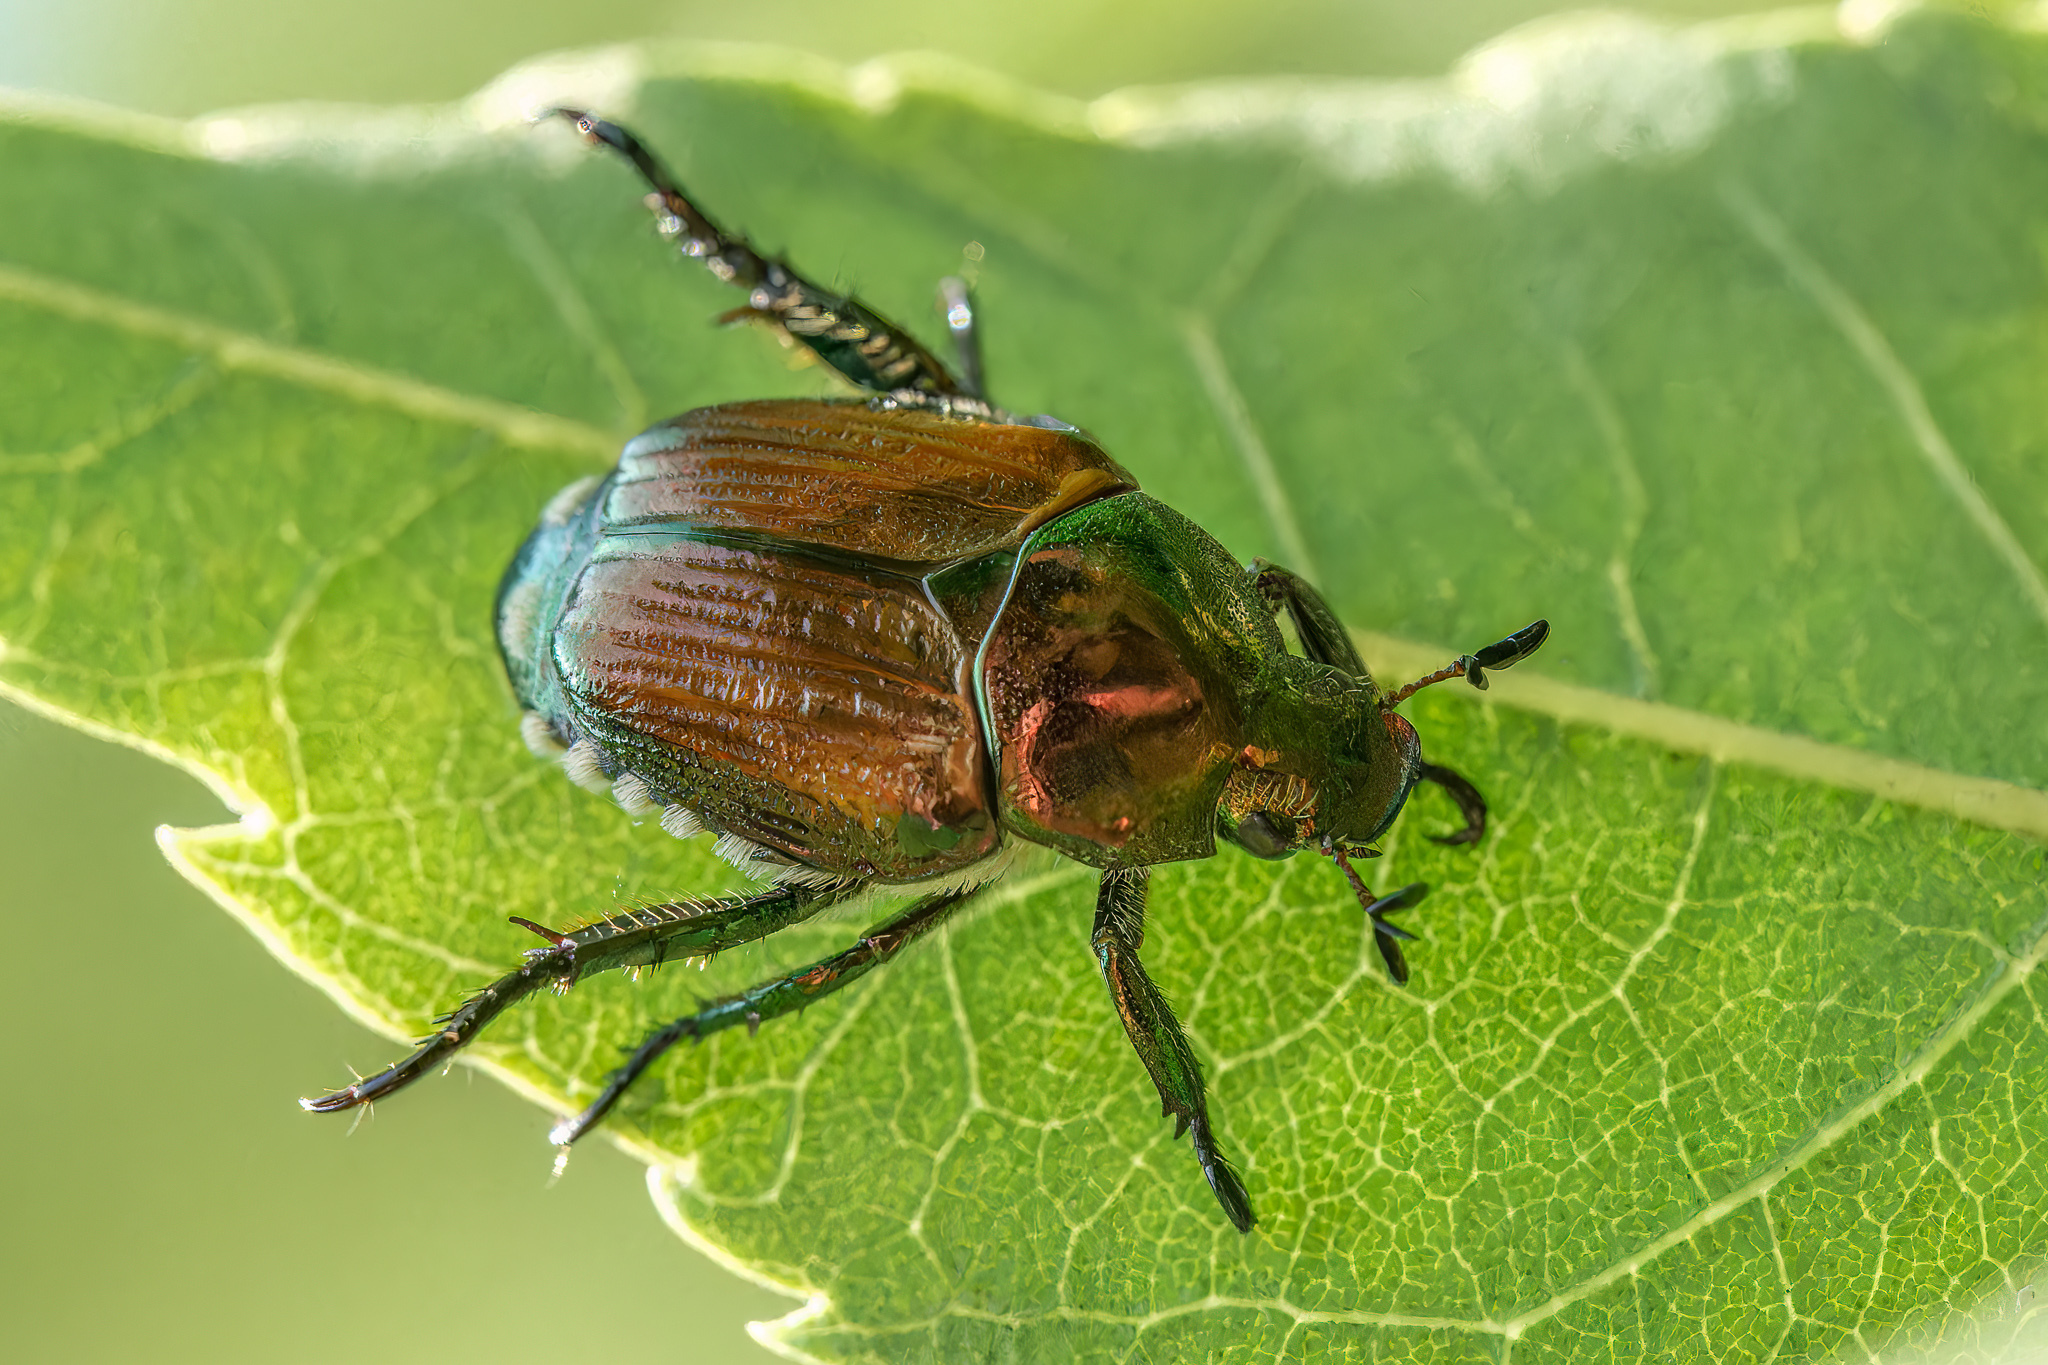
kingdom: Animalia
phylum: Arthropoda
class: Insecta
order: Coleoptera
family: Scarabaeidae
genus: Popillia
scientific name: Popillia japonica
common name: Japanese beetle
